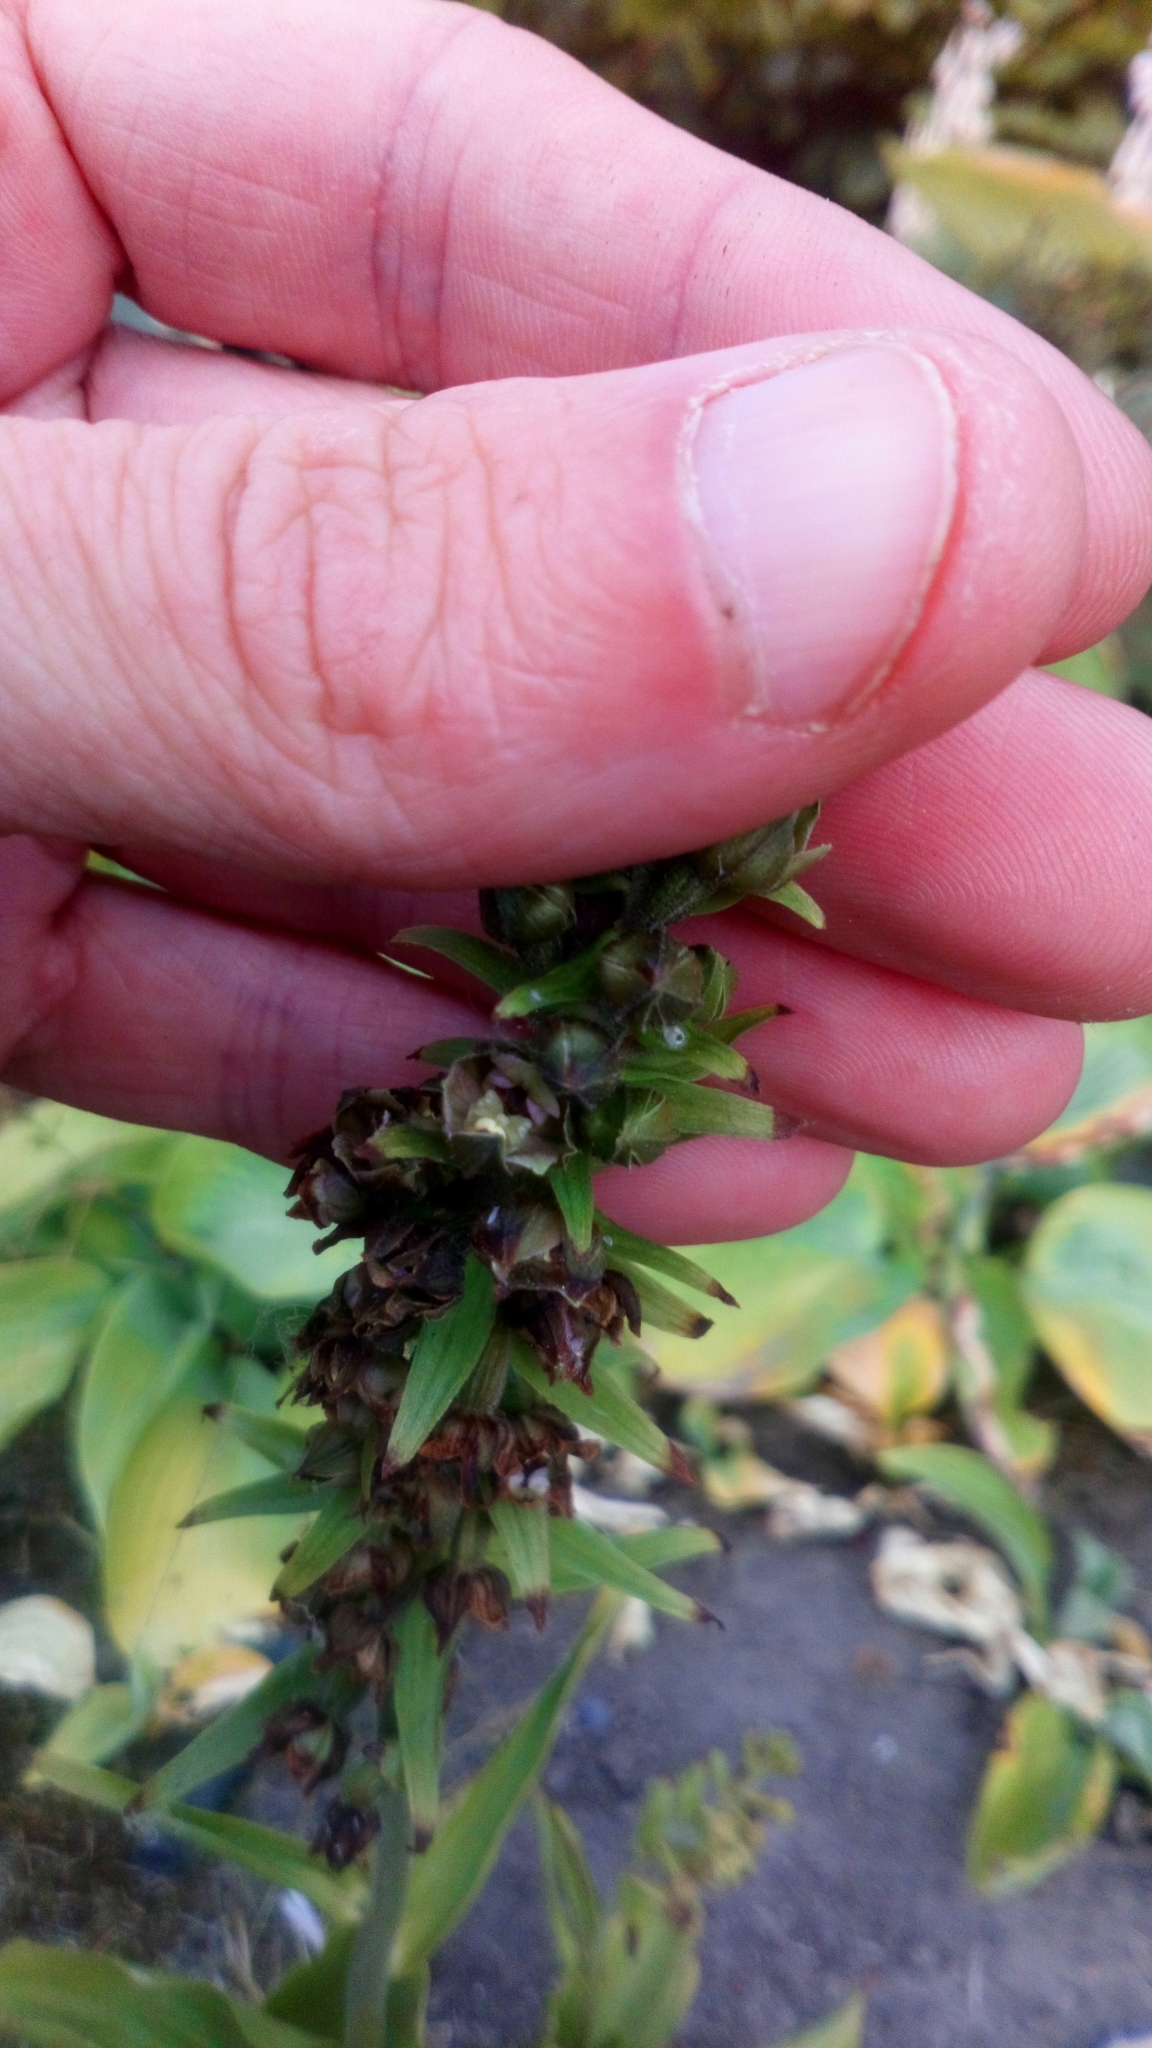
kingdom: Plantae
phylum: Tracheophyta
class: Liliopsida
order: Asparagales
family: Orchidaceae
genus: Epipactis
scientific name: Epipactis helleborine
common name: Broad-leaved helleborine
